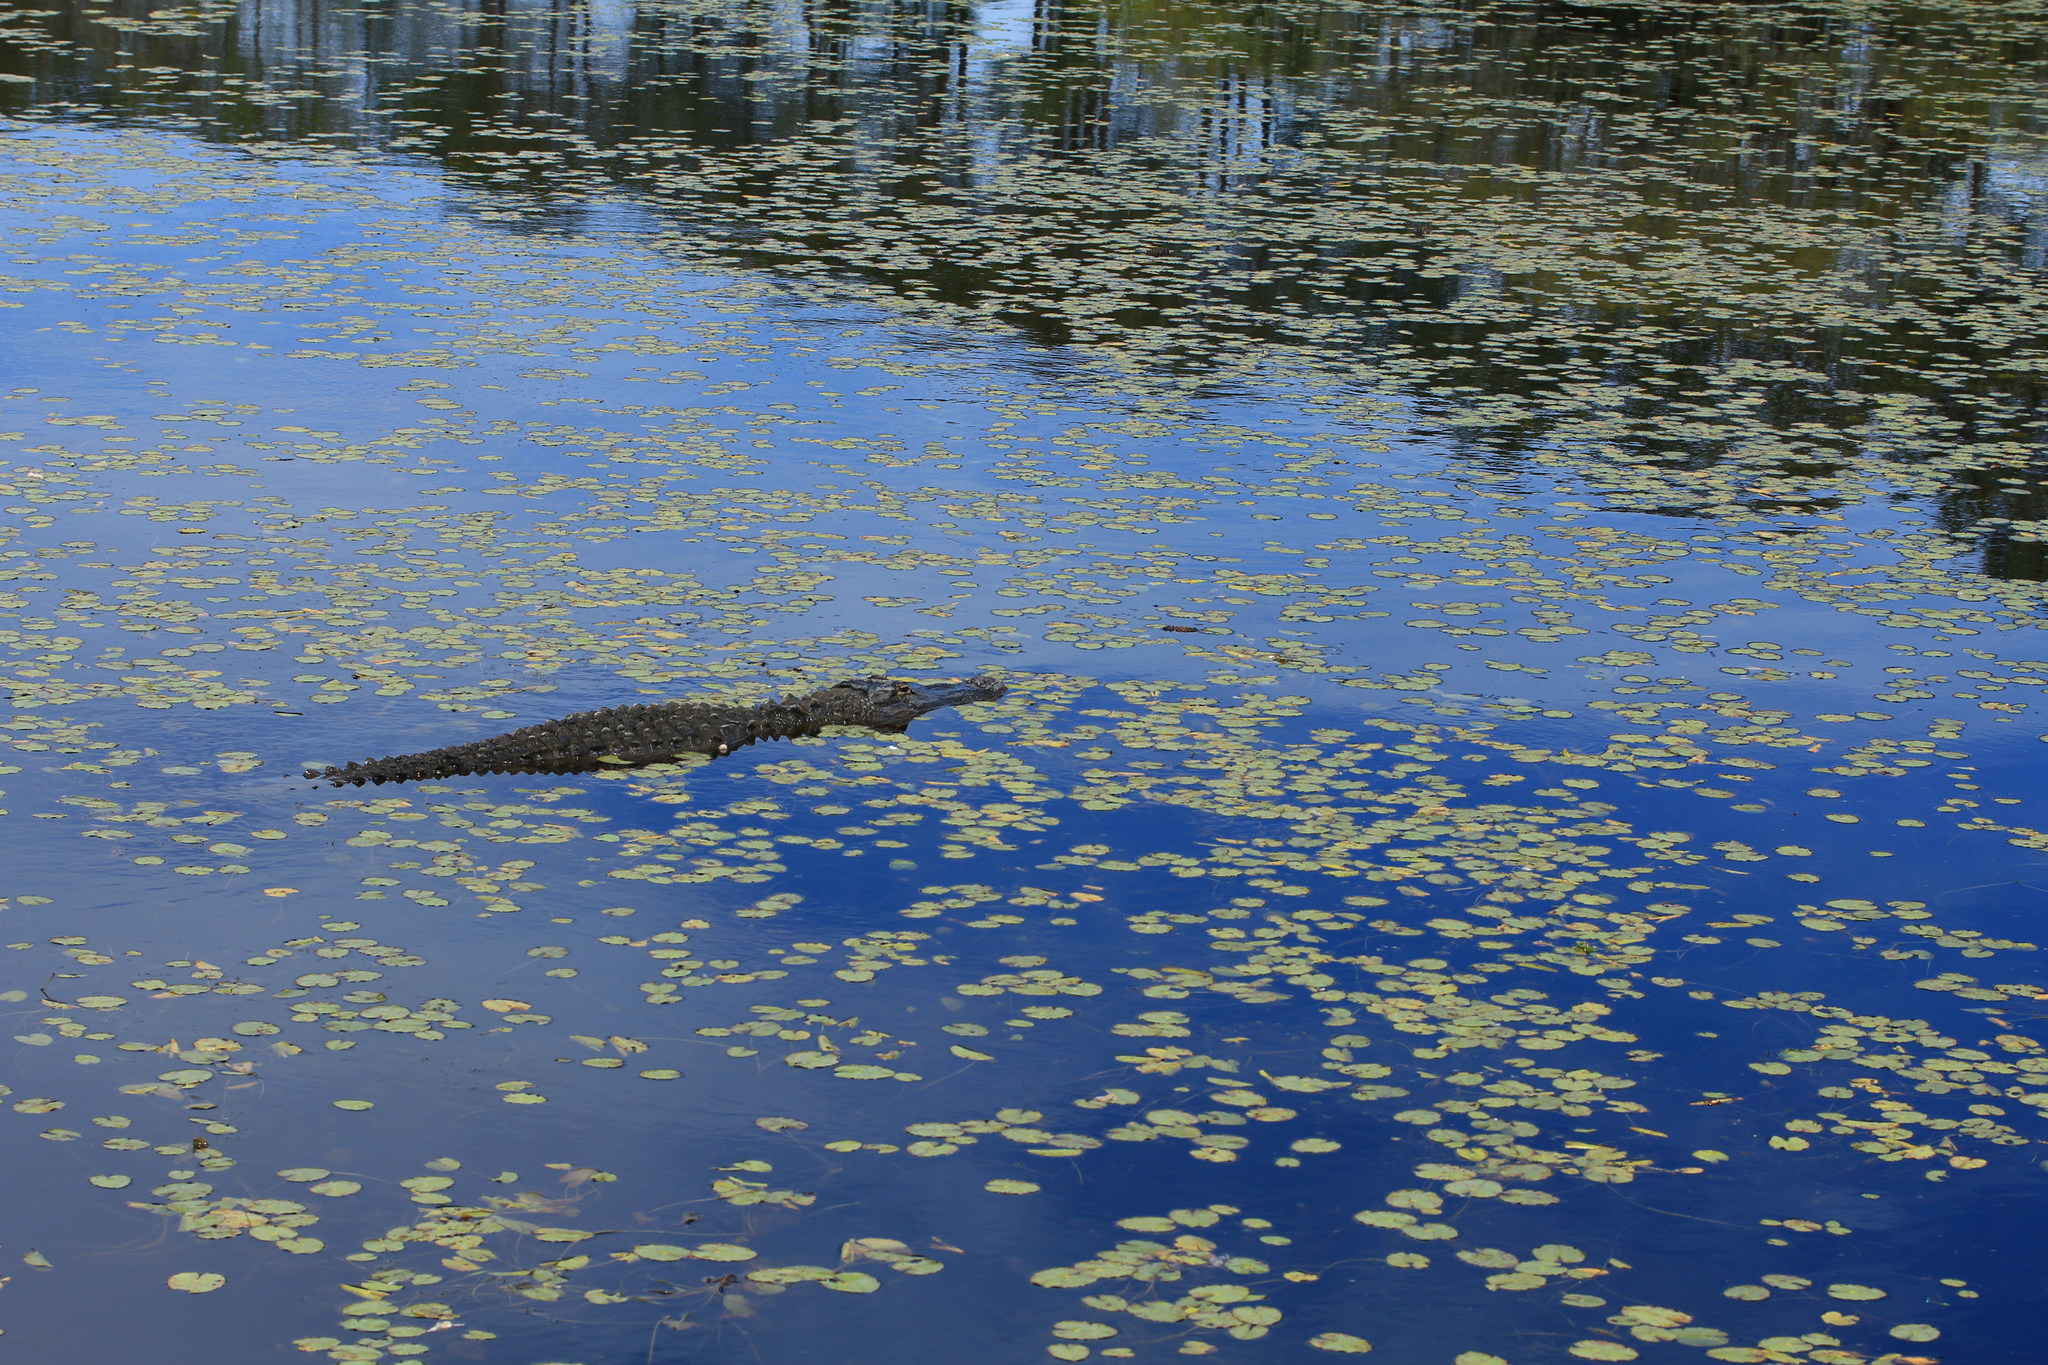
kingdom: Animalia
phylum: Chordata
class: Crocodylia
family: Alligatoridae
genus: Alligator
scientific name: Alligator mississippiensis
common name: American alligator
